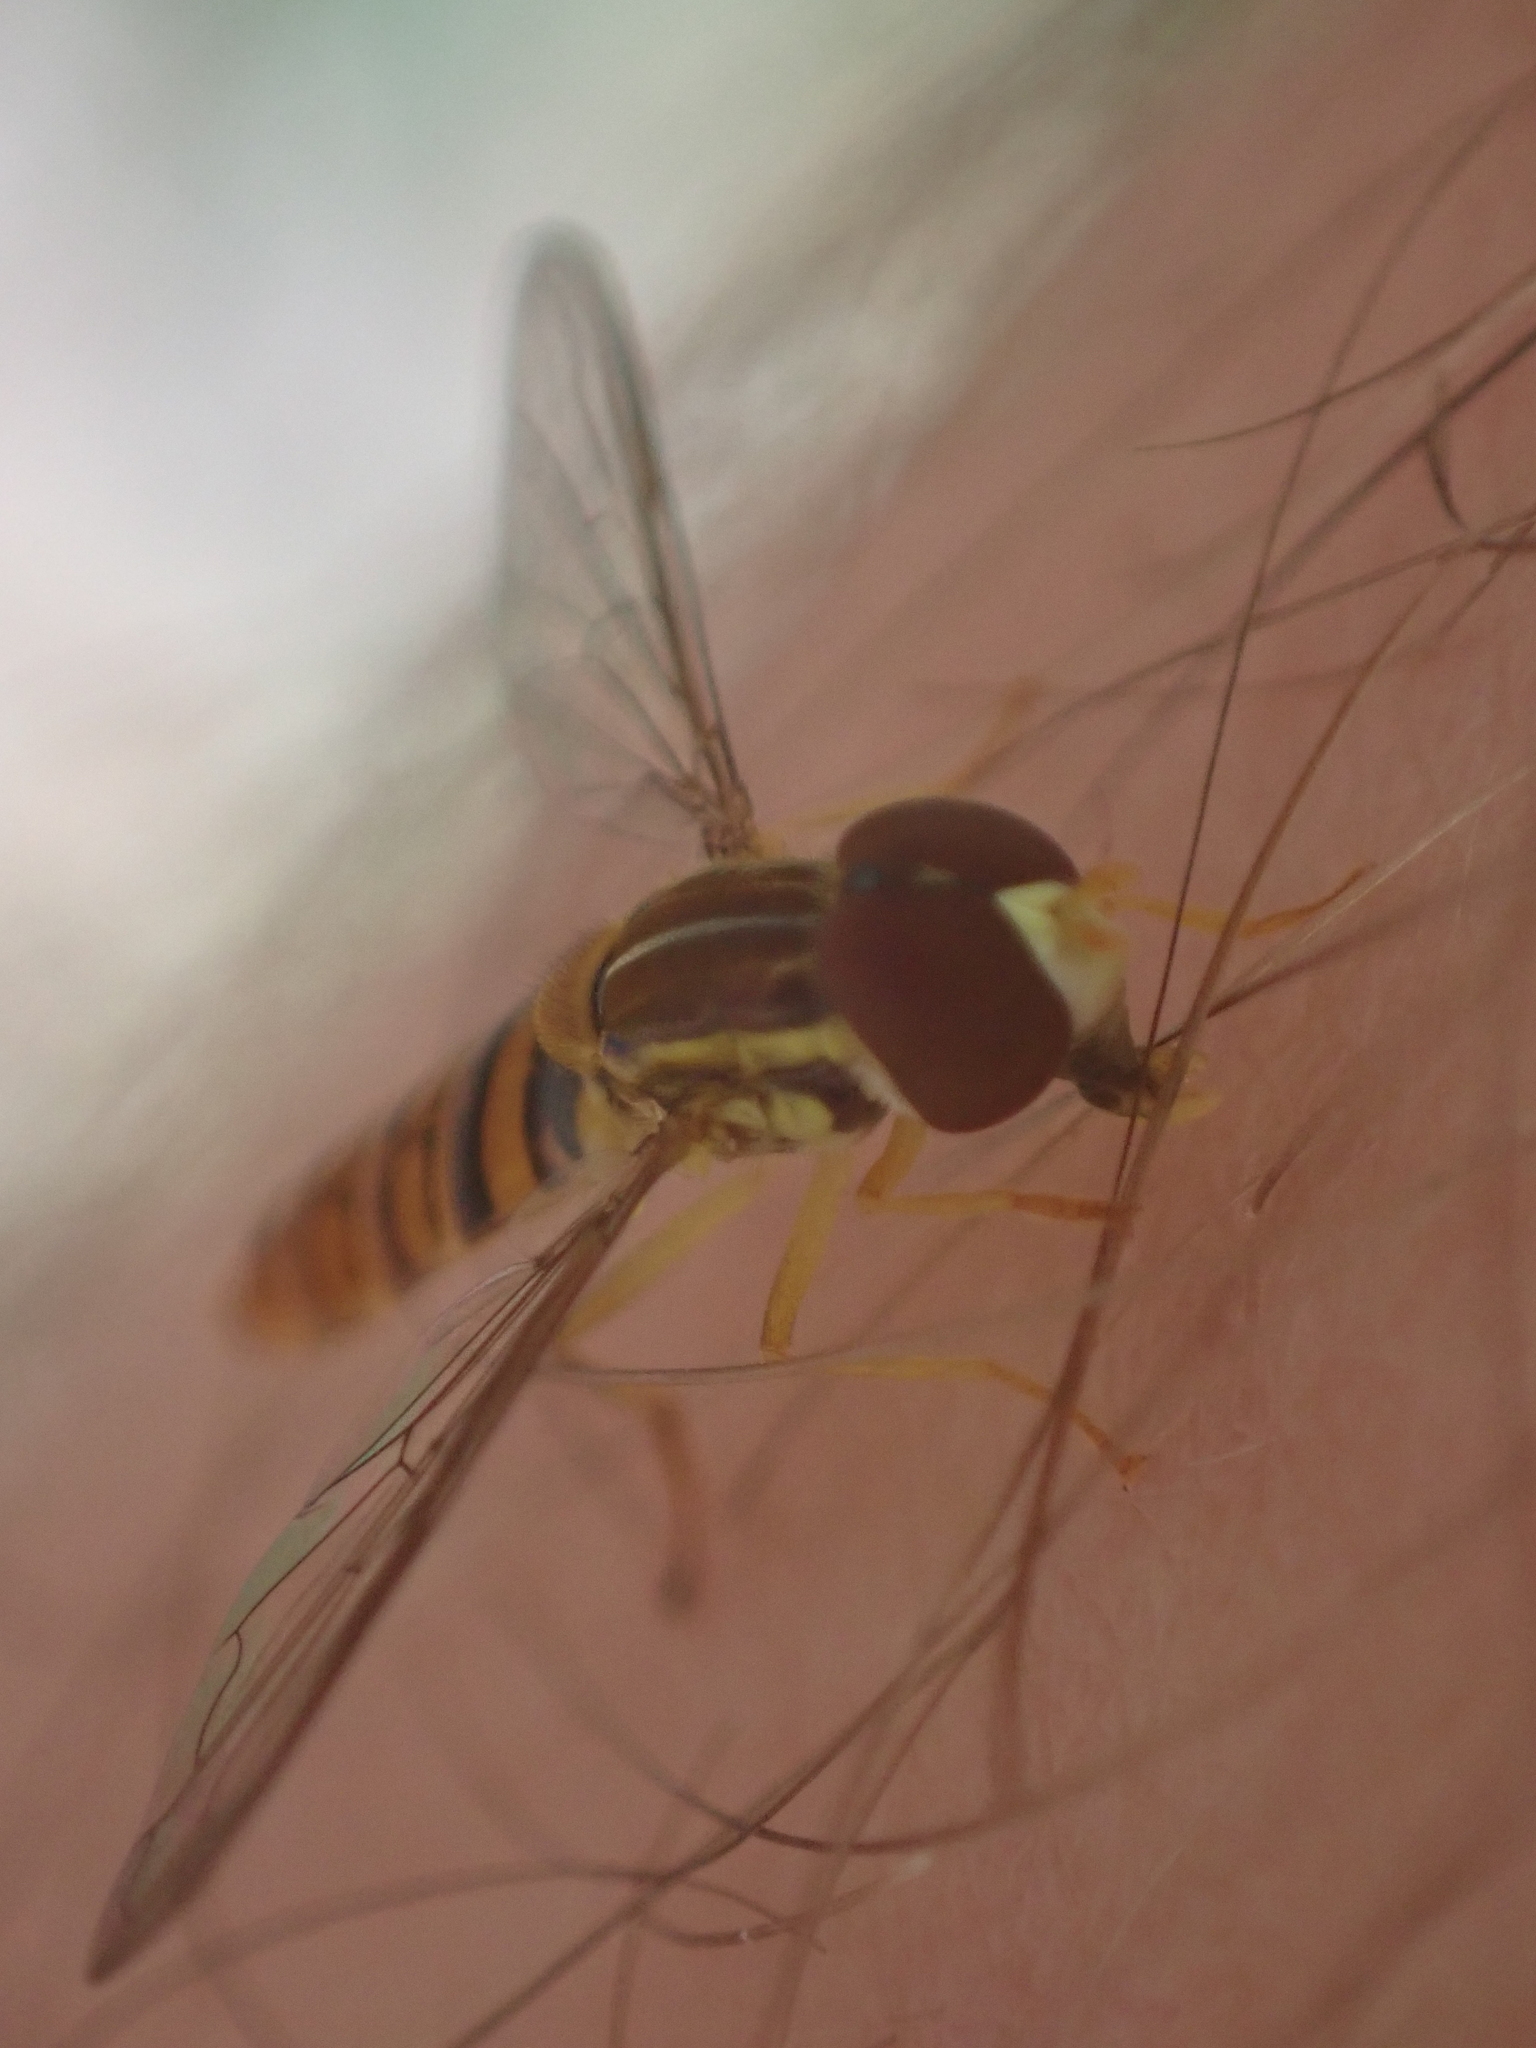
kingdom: Animalia
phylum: Arthropoda
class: Insecta
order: Diptera
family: Syrphidae
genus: Toxomerus
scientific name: Toxomerus politus
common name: Maize calligrapher
